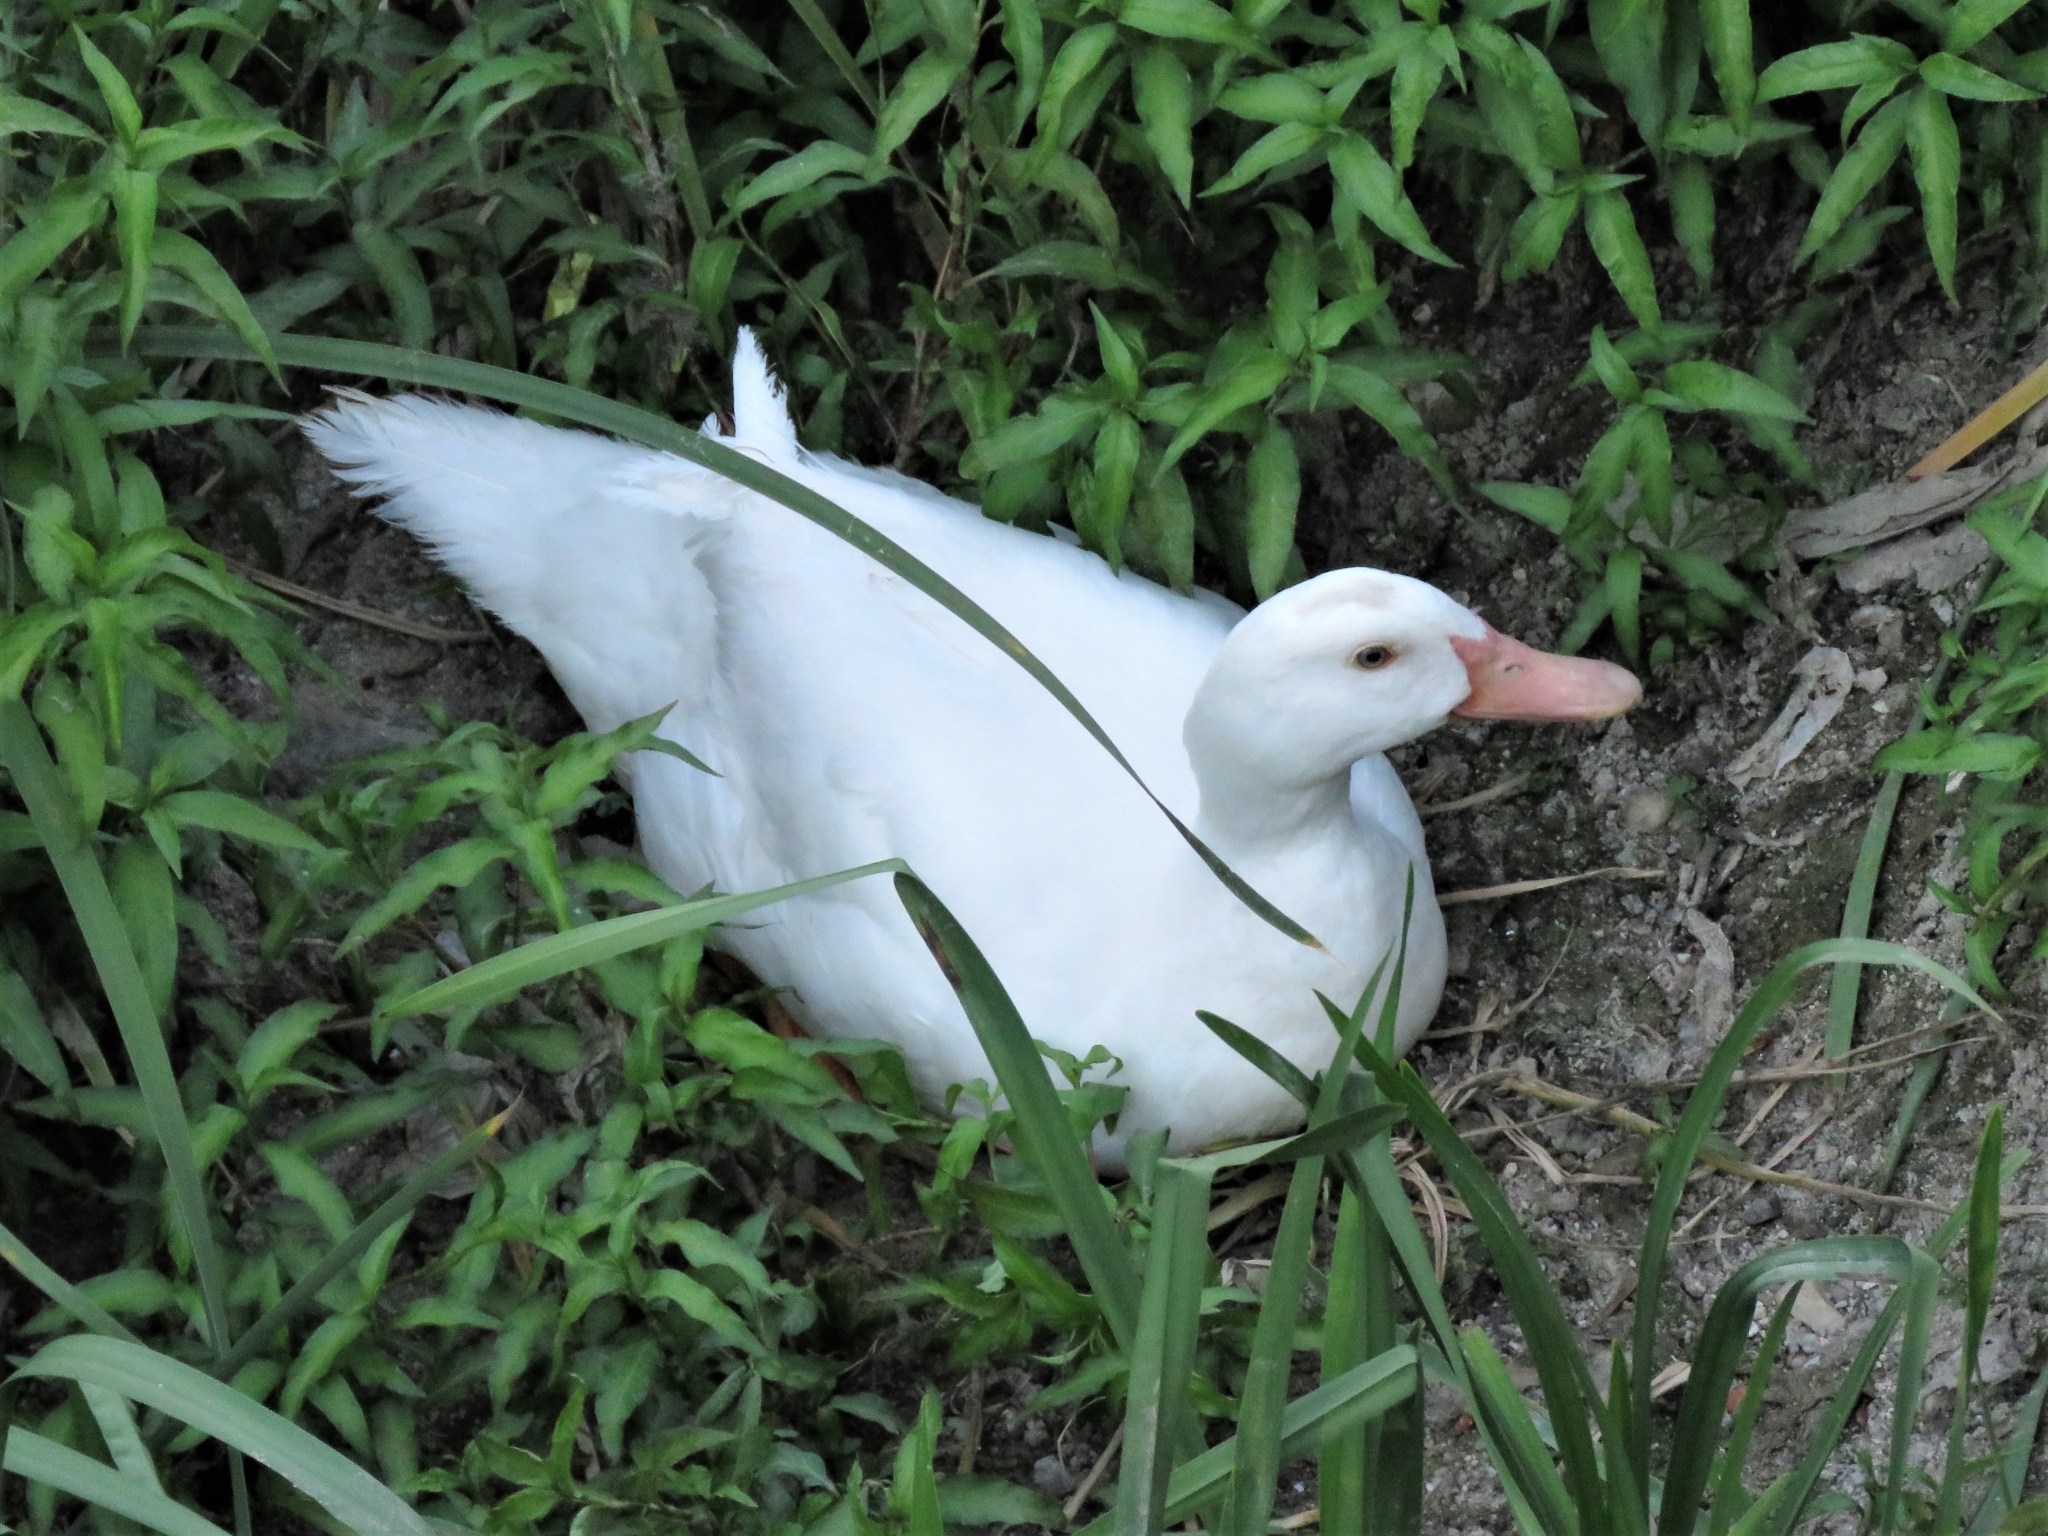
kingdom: Animalia
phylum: Chordata
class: Aves
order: Anseriformes
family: Anatidae
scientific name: Anatidae
